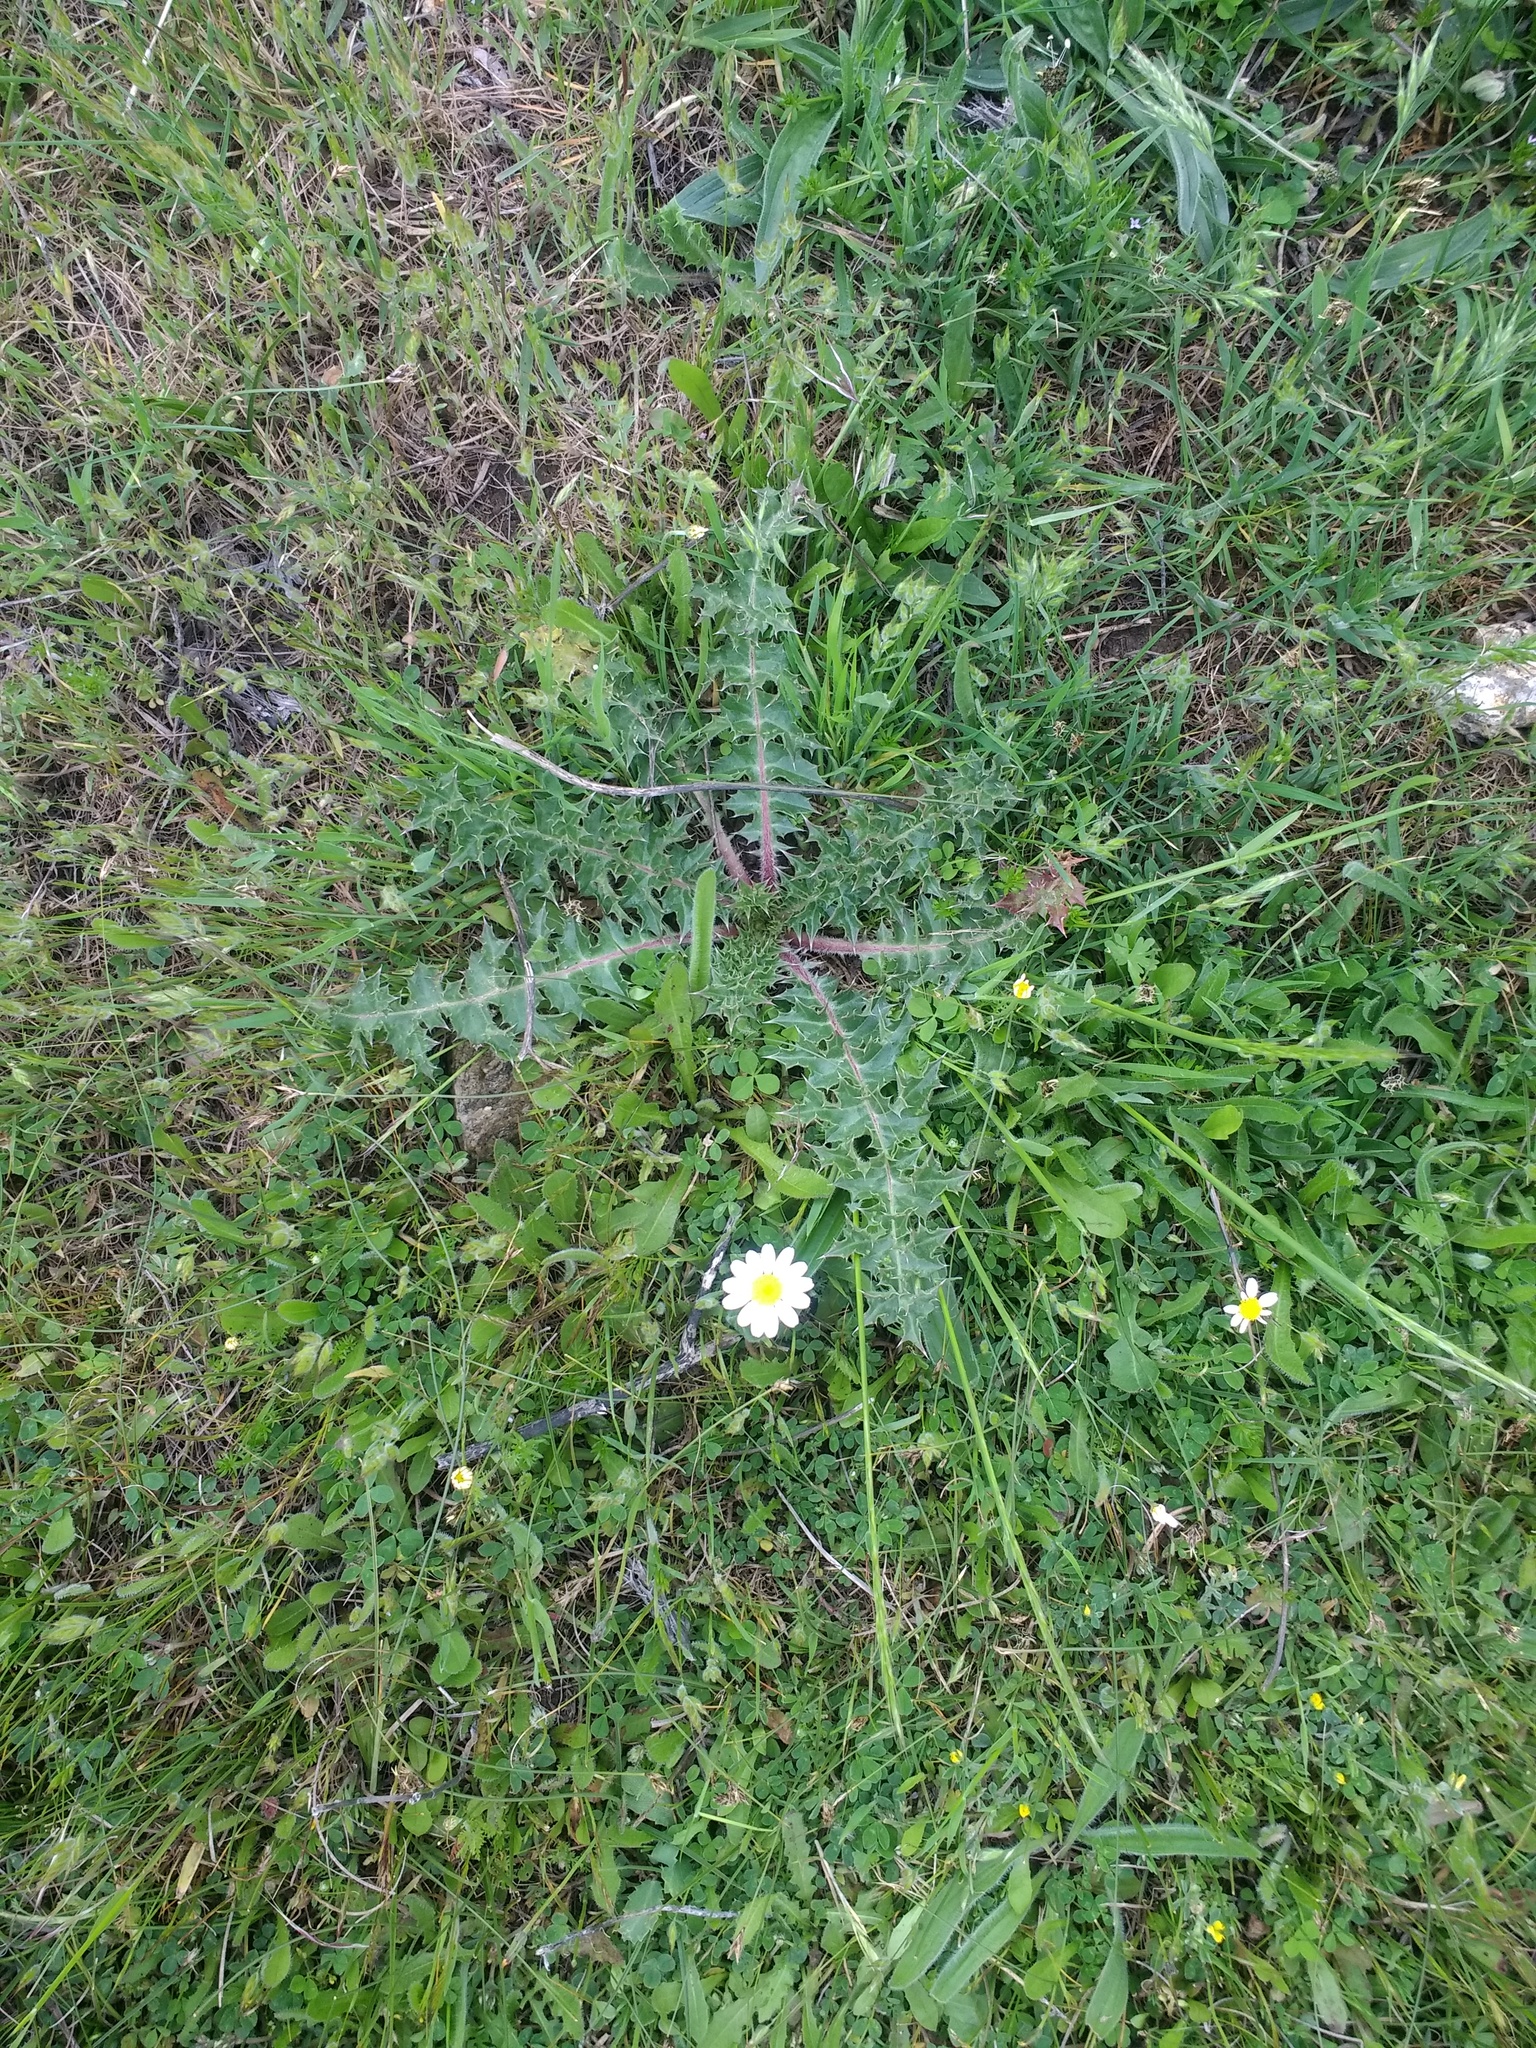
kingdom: Plantae
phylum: Tracheophyta
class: Magnoliopsida
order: Asterales
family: Asteraceae
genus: Scolymus
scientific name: Scolymus hispanicus
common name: Golden thistle
